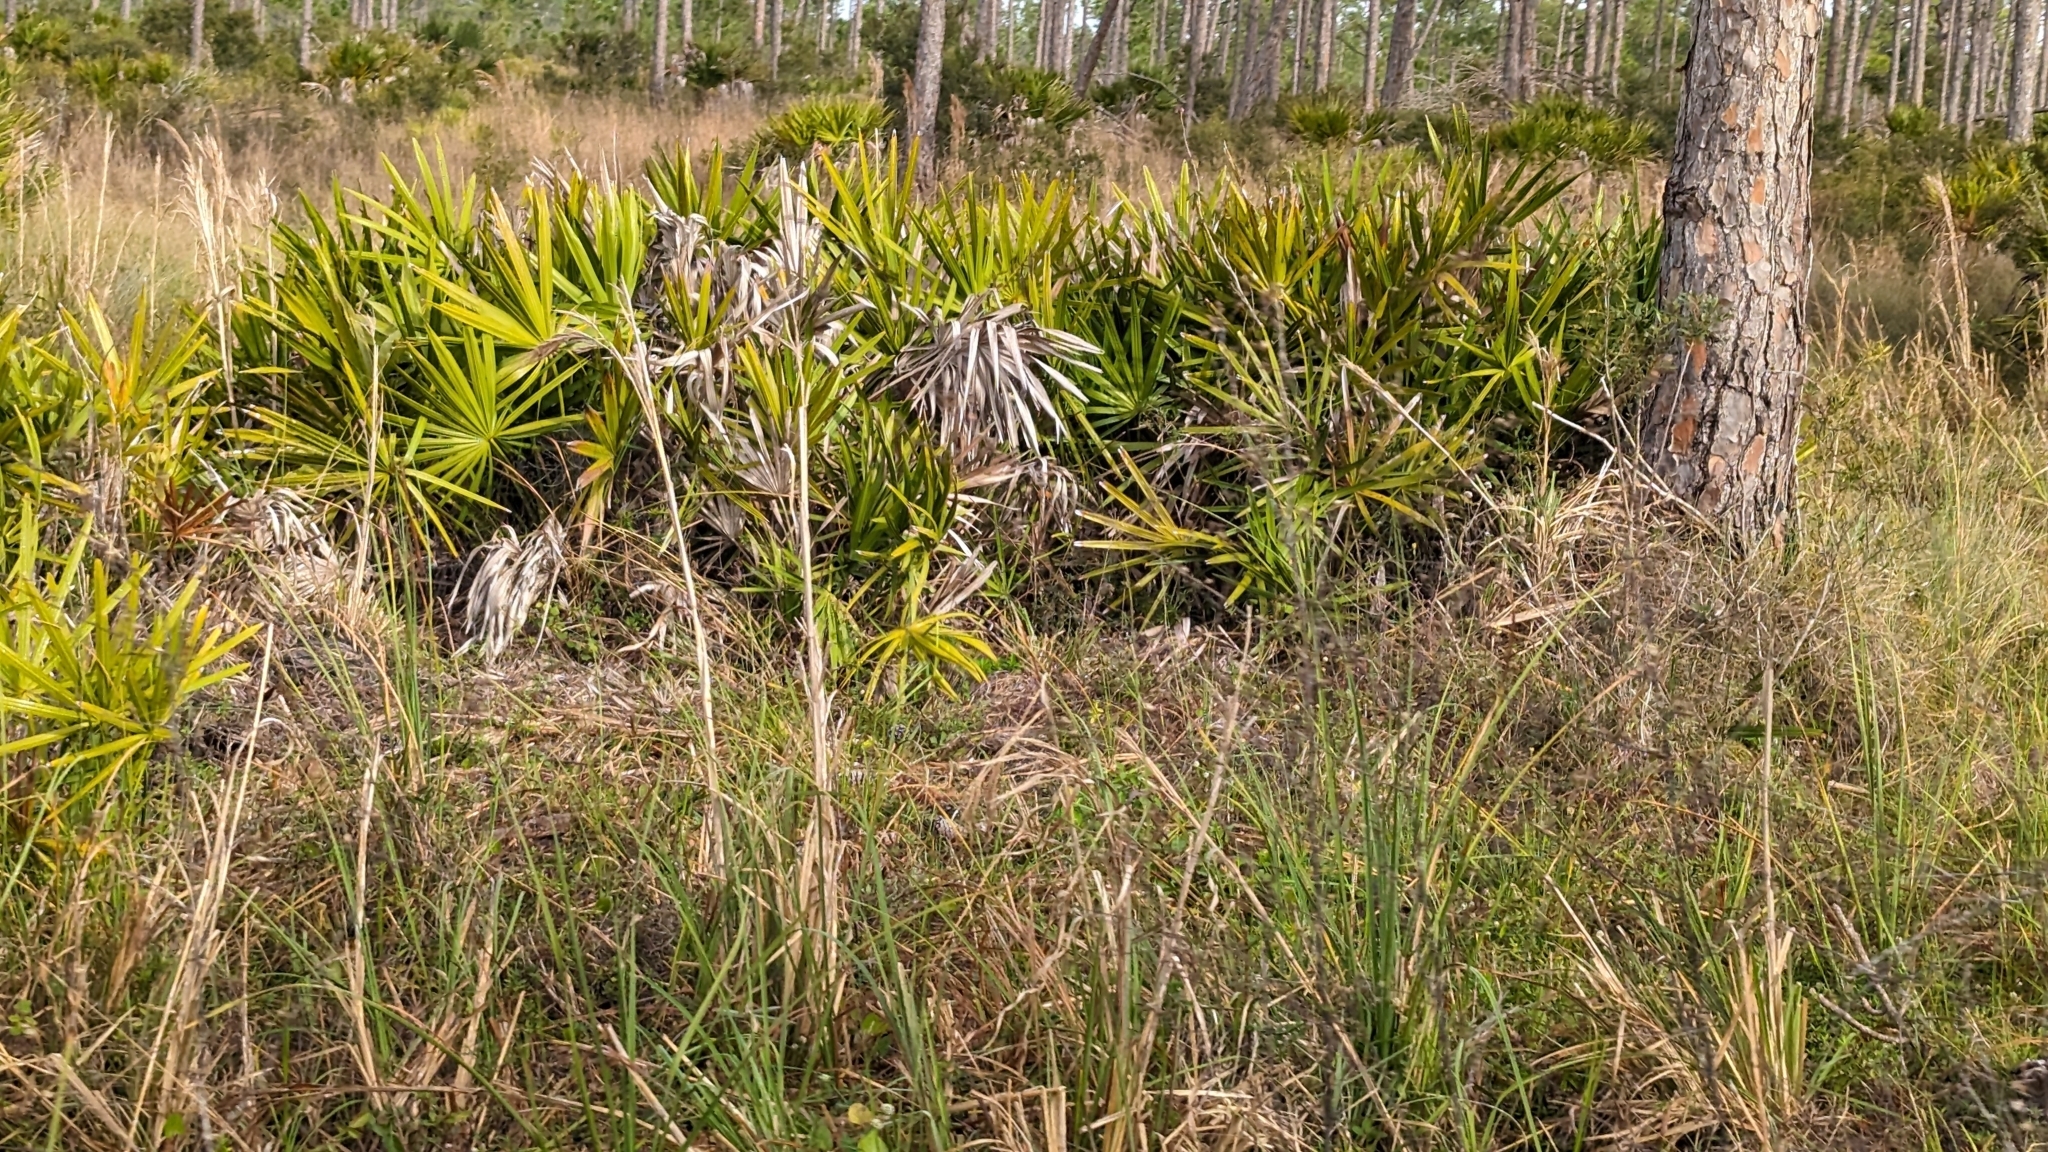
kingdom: Plantae
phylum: Tracheophyta
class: Liliopsida
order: Arecales
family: Arecaceae
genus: Serenoa
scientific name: Serenoa repens
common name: Saw-palmetto
